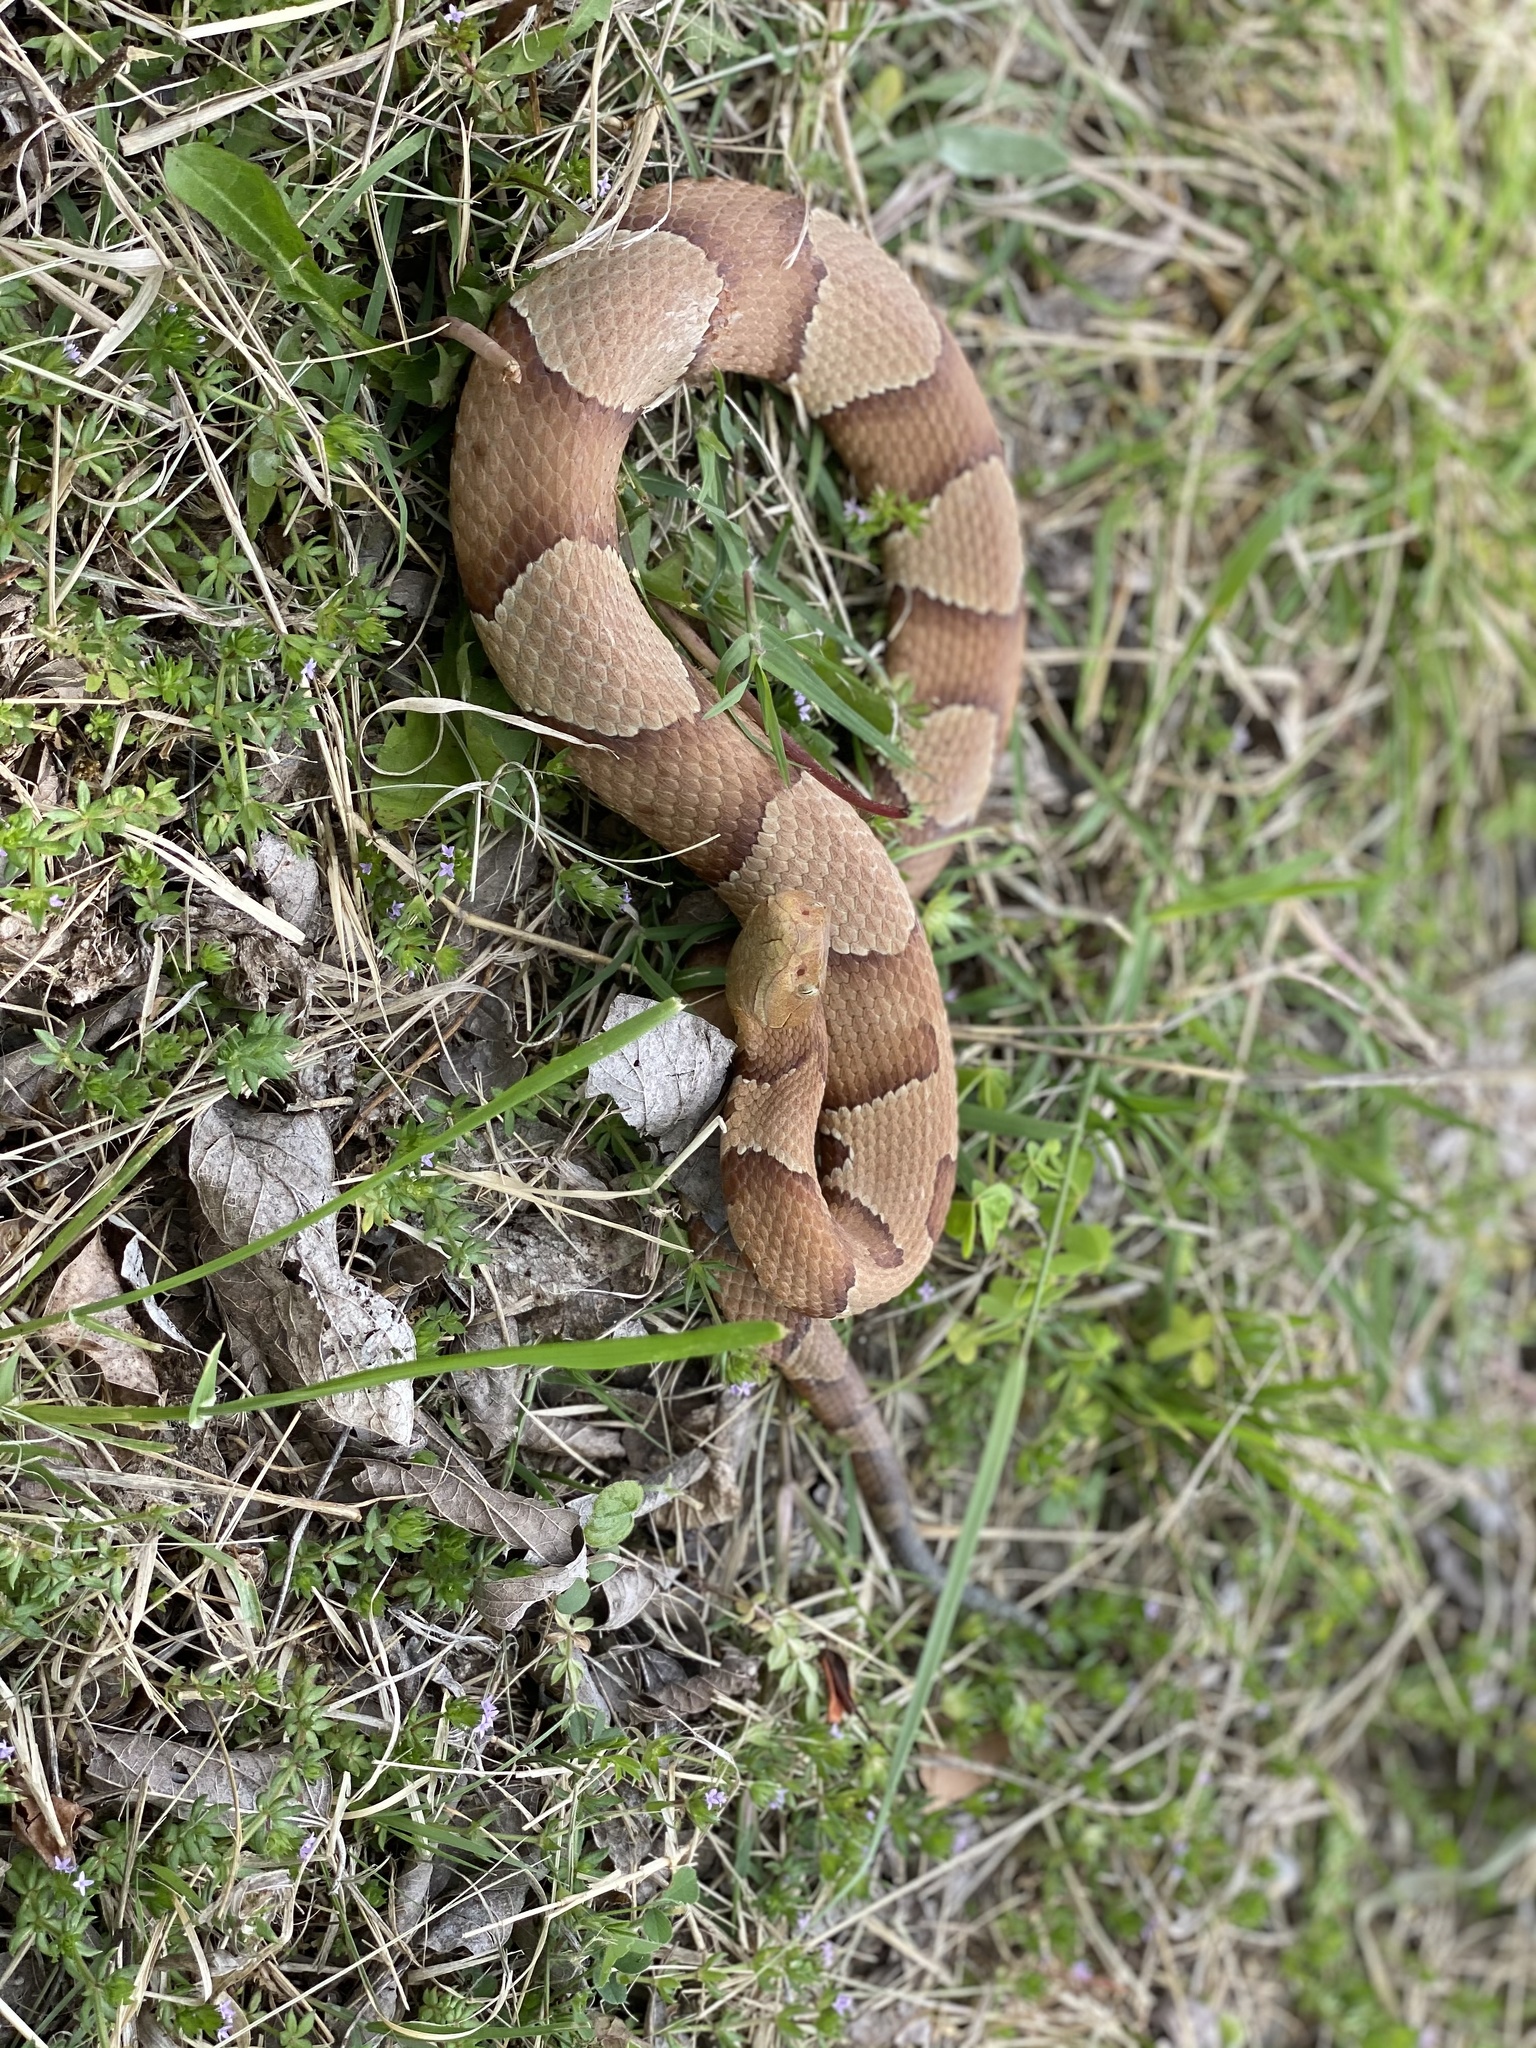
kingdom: Animalia
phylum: Chordata
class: Squamata
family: Viperidae
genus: Agkistrodon
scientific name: Agkistrodon laticinctus
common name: Broad-banded copperhead
